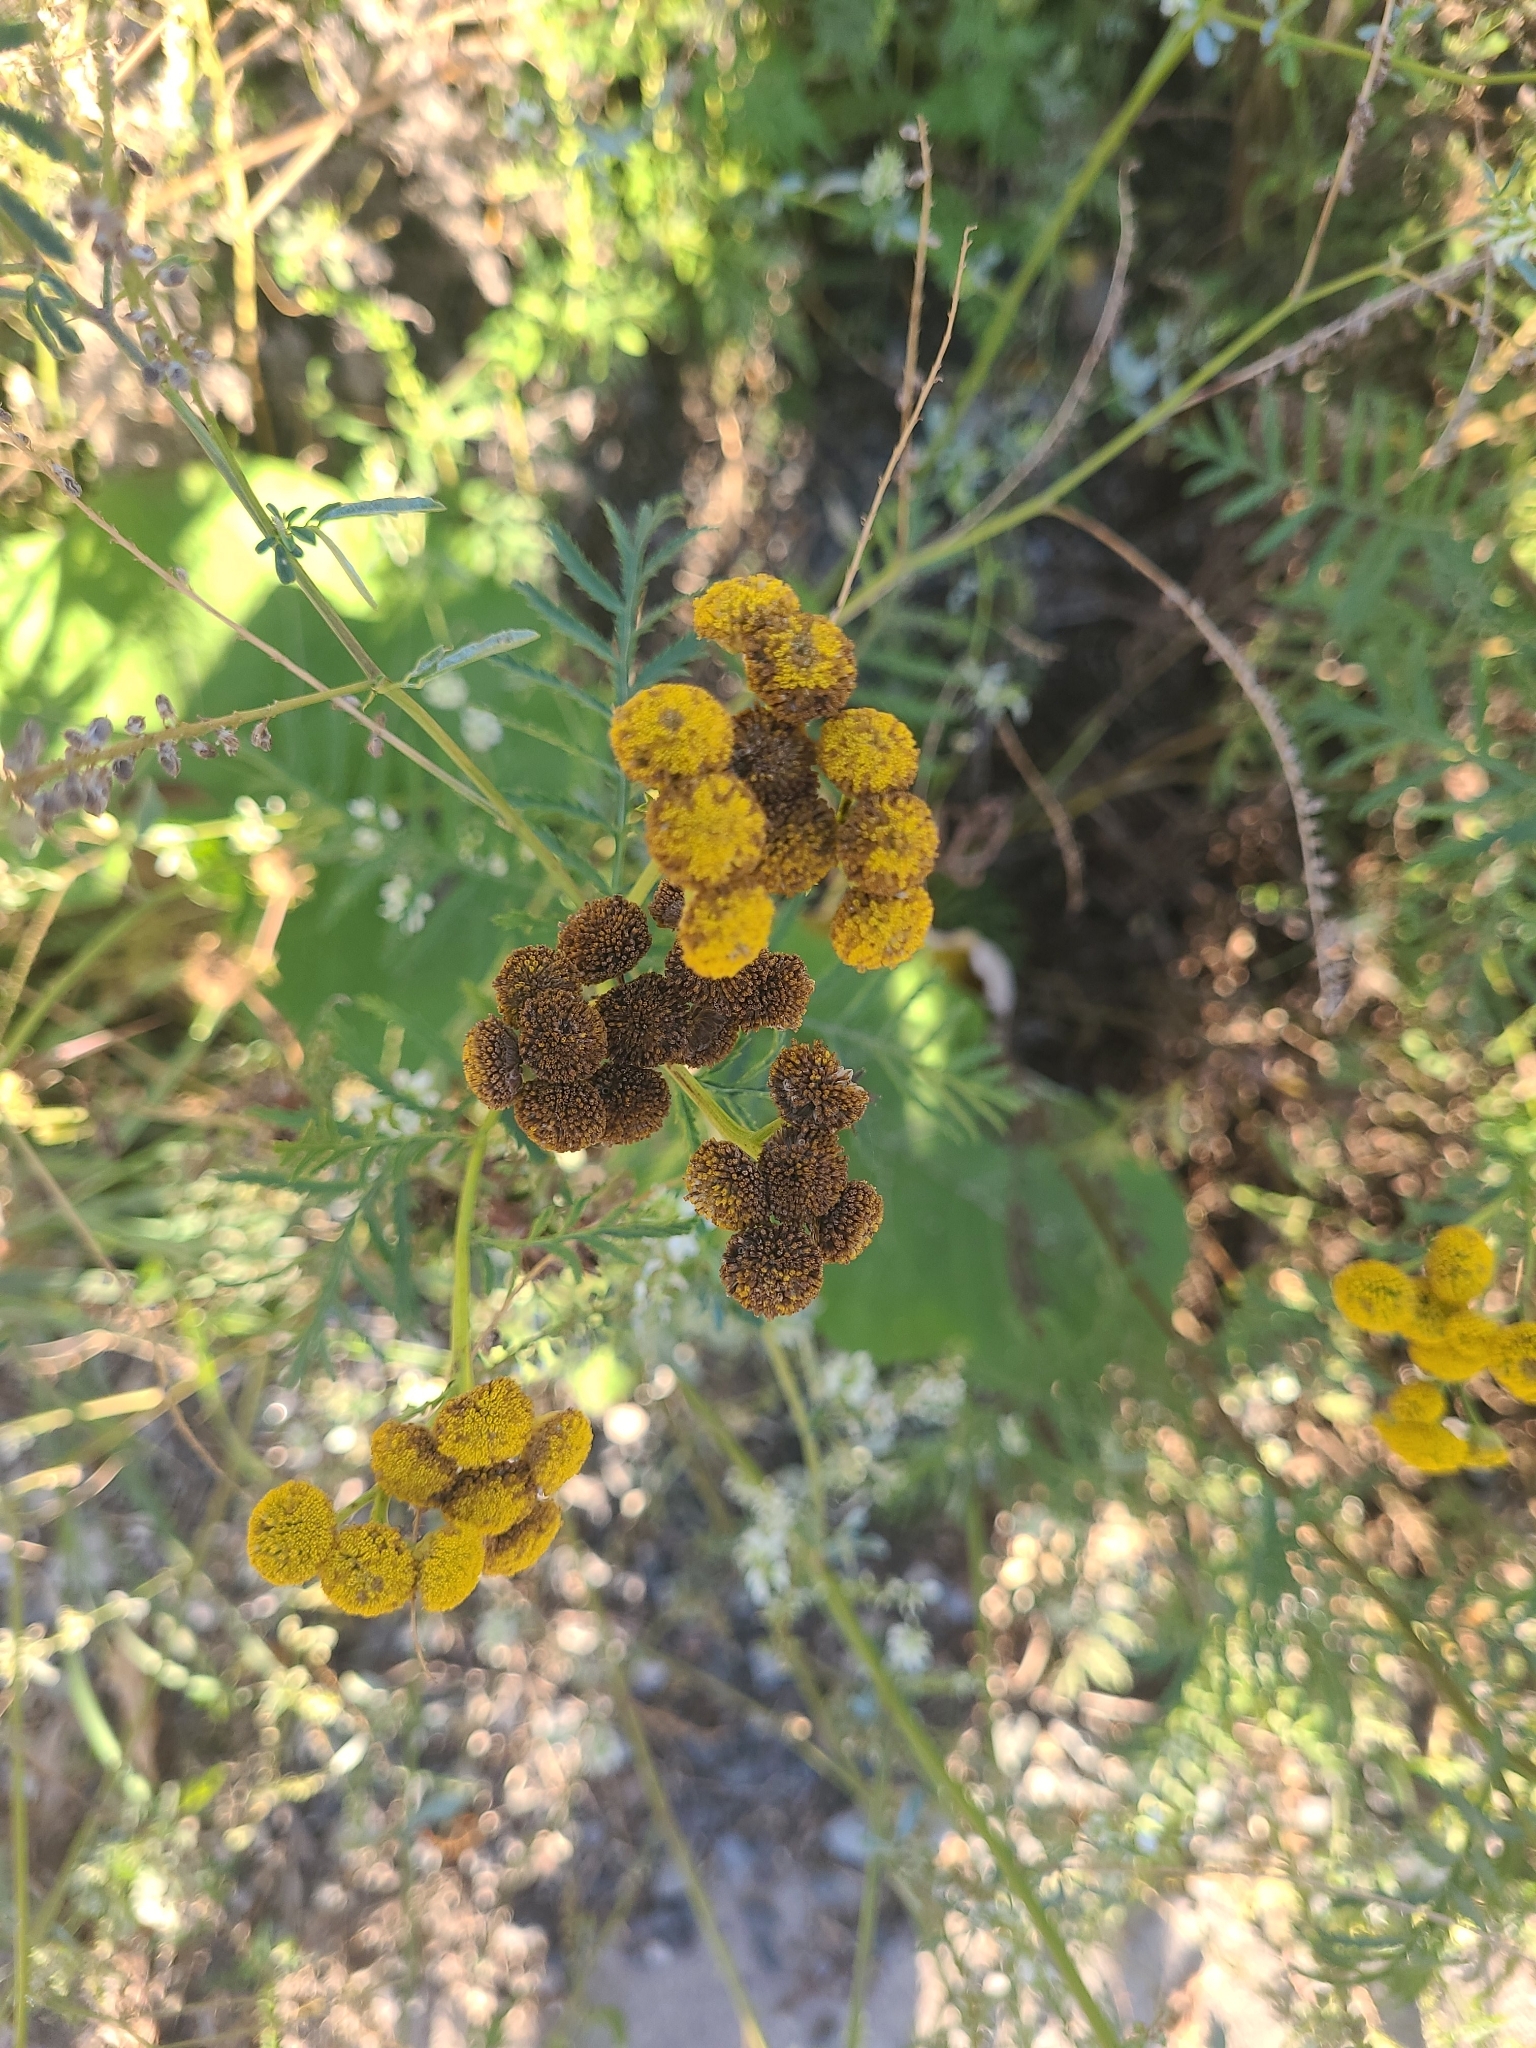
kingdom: Plantae
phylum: Tracheophyta
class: Magnoliopsida
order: Asterales
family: Asteraceae
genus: Tanacetum
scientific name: Tanacetum vulgare
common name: Common tansy
